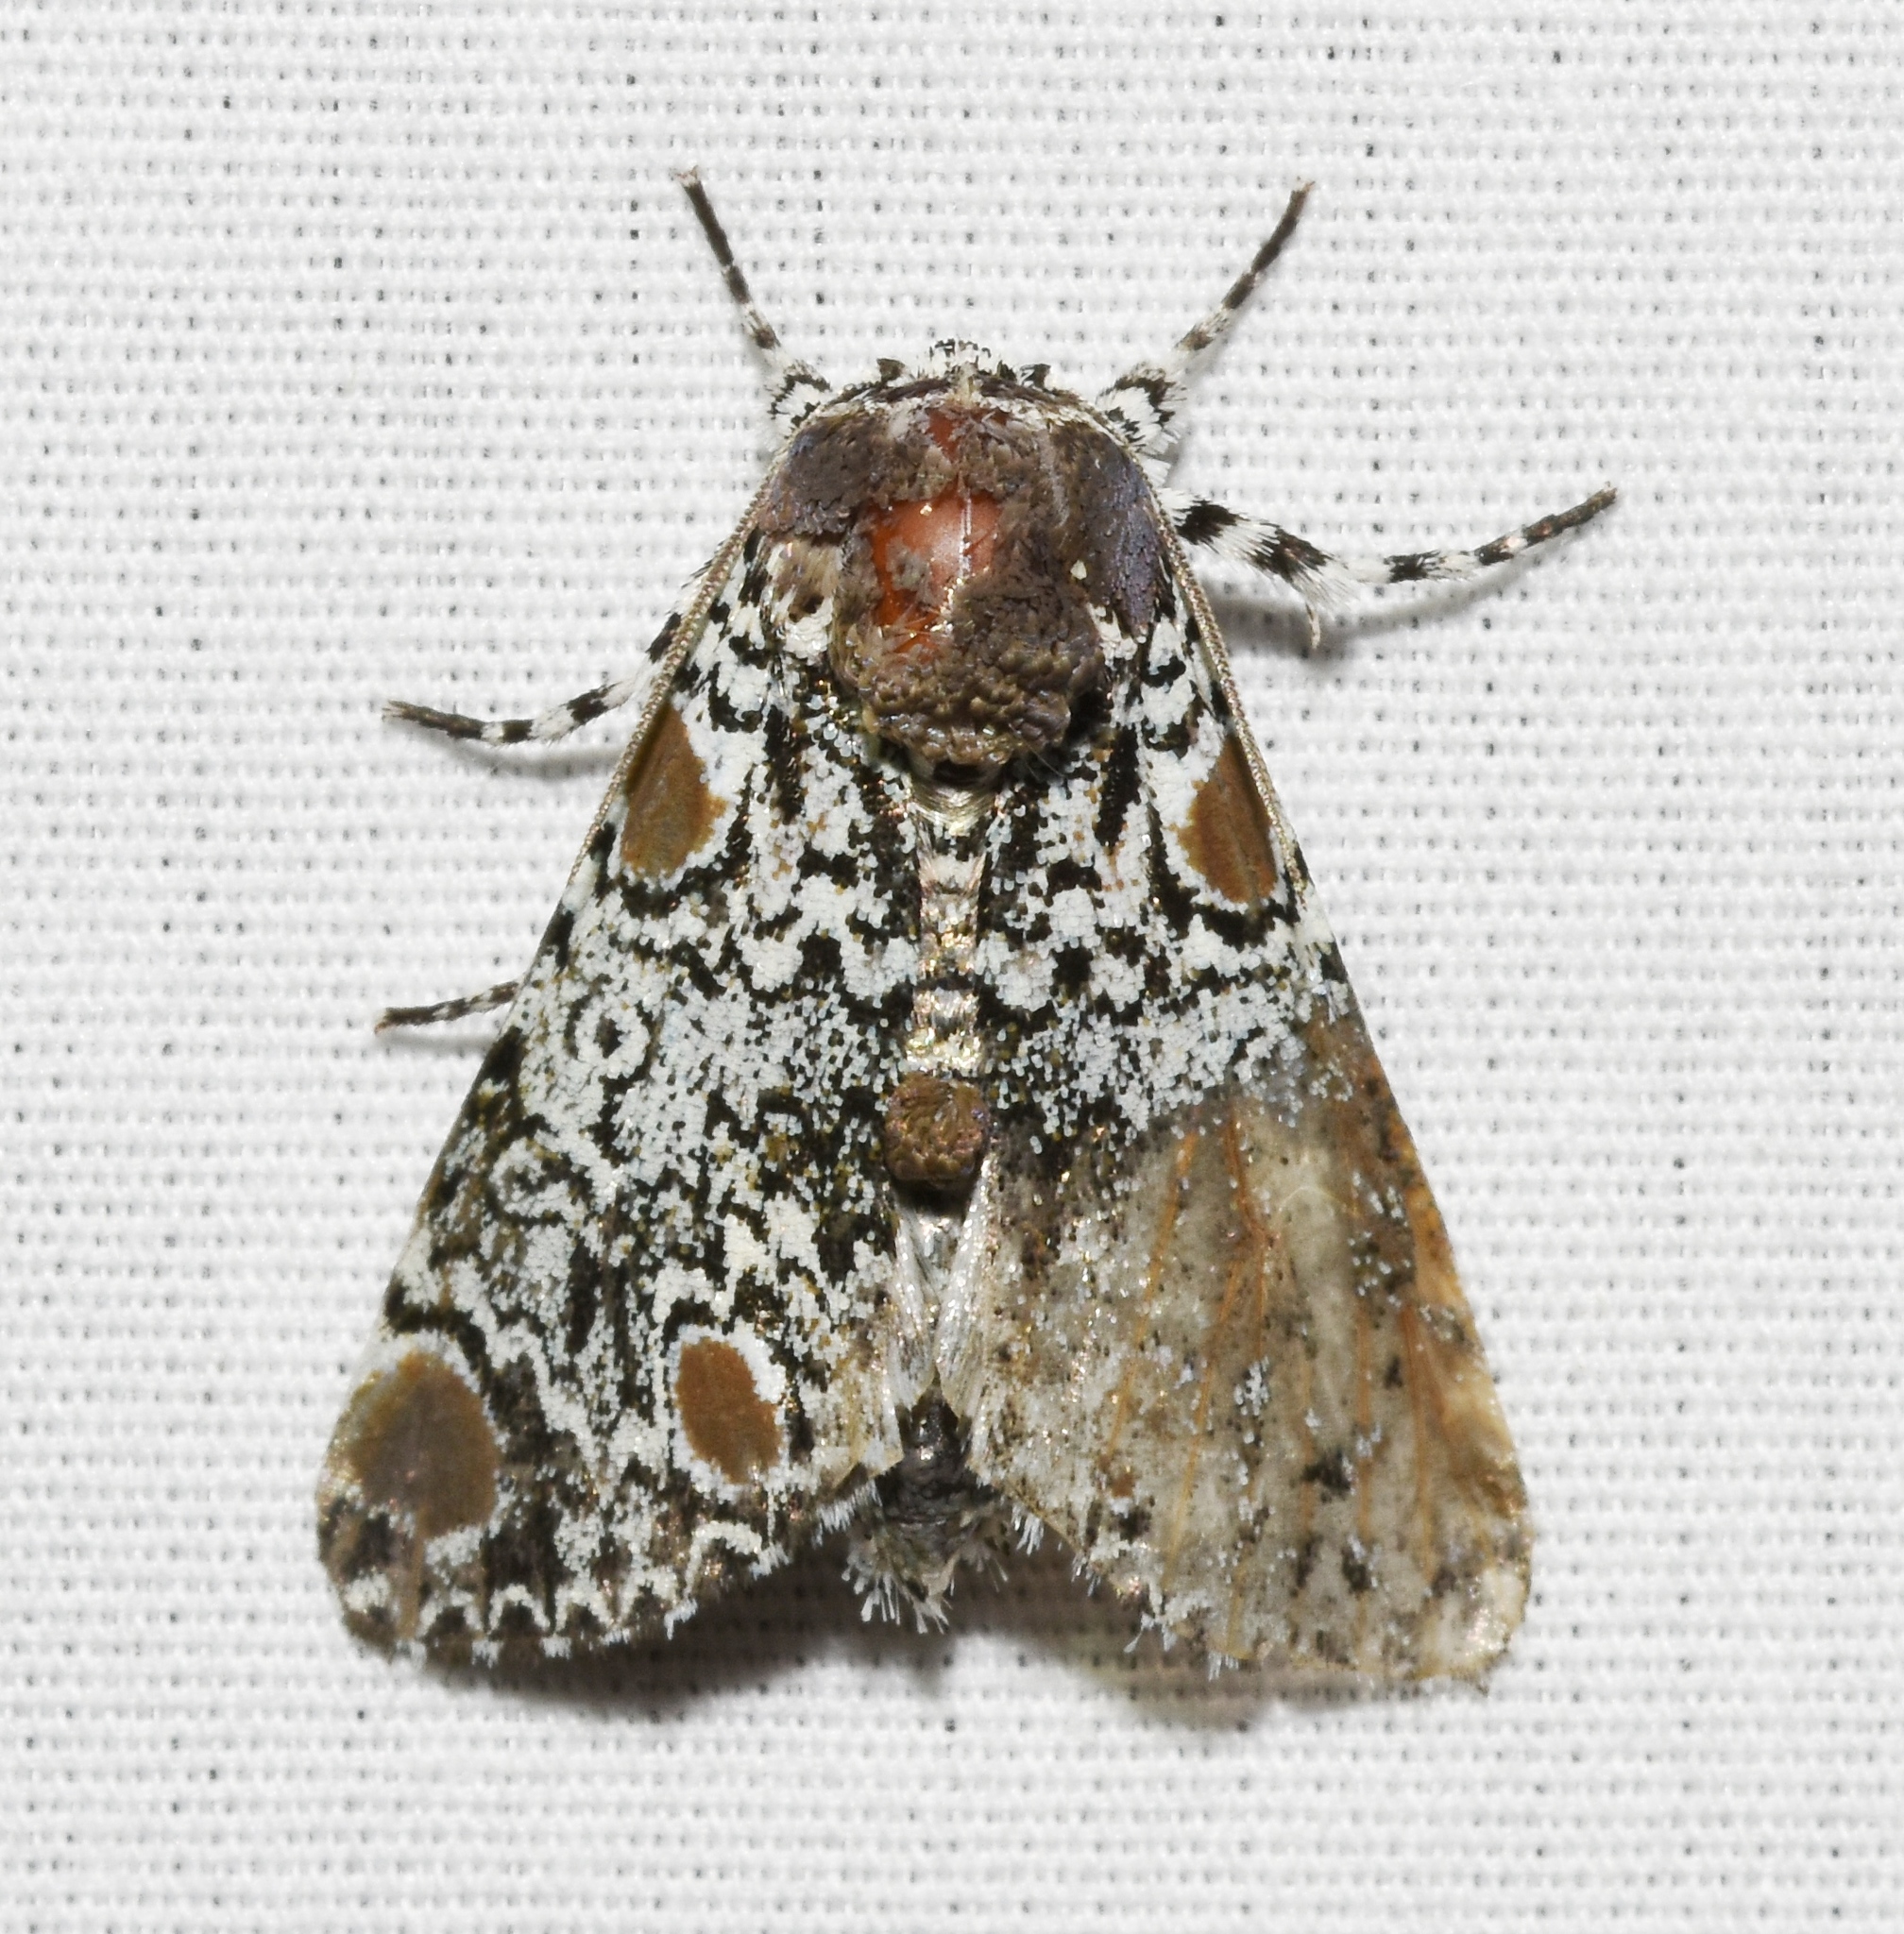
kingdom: Animalia
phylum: Arthropoda
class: Insecta
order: Lepidoptera
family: Noctuidae
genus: Harrisimemna
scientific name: Harrisimemna trisignata
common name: Harris threespot
